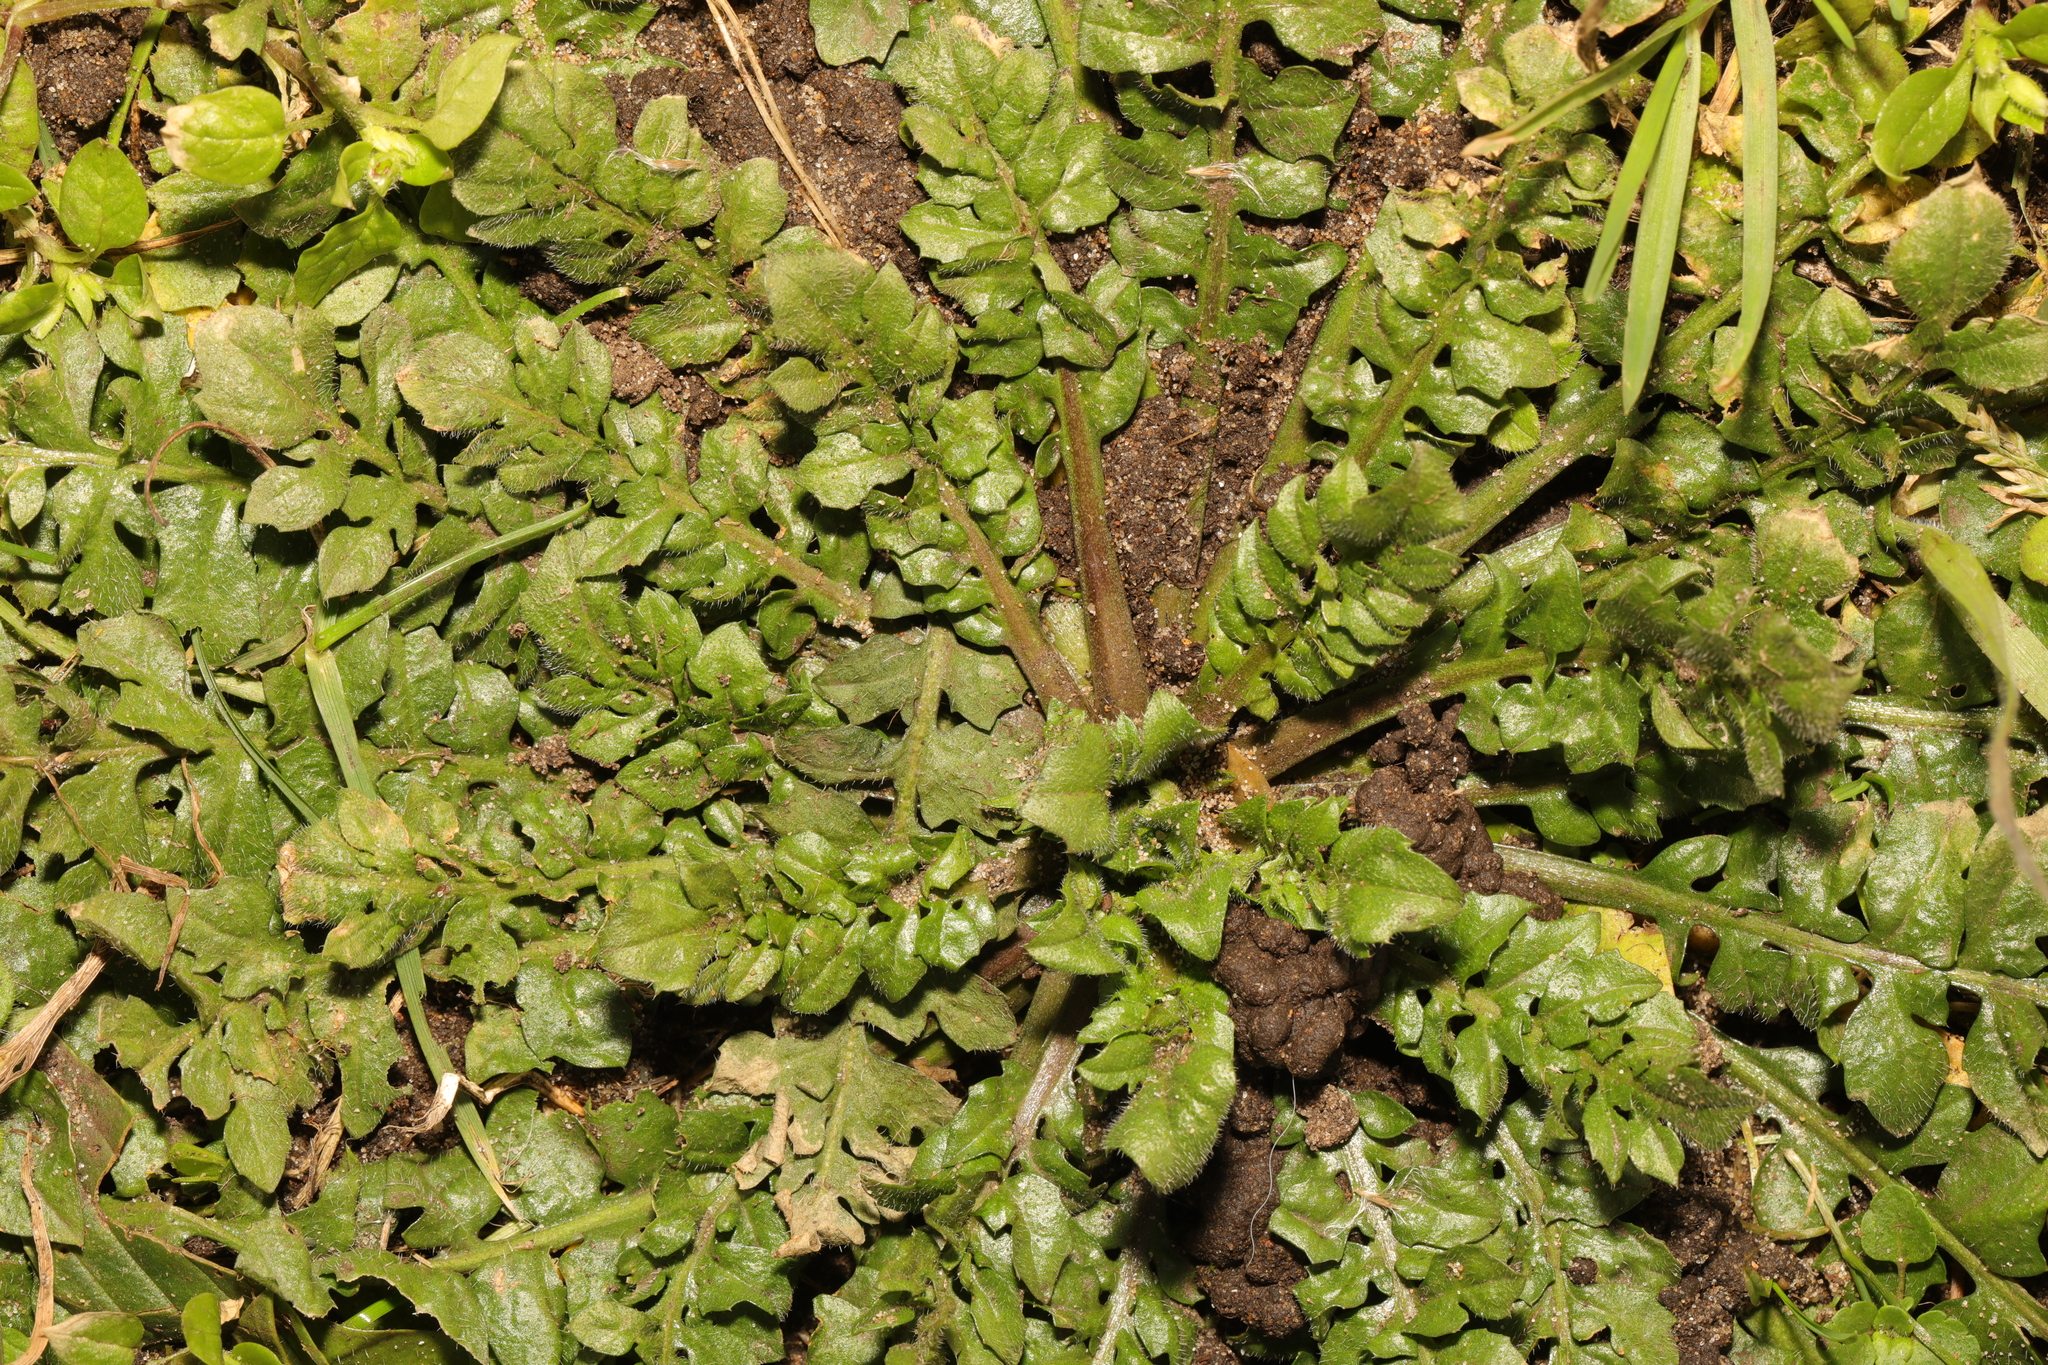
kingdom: Plantae
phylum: Tracheophyta
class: Magnoliopsida
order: Brassicales
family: Brassicaceae
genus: Capsella
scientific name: Capsella bursa-pastoris
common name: Shepherd's purse
